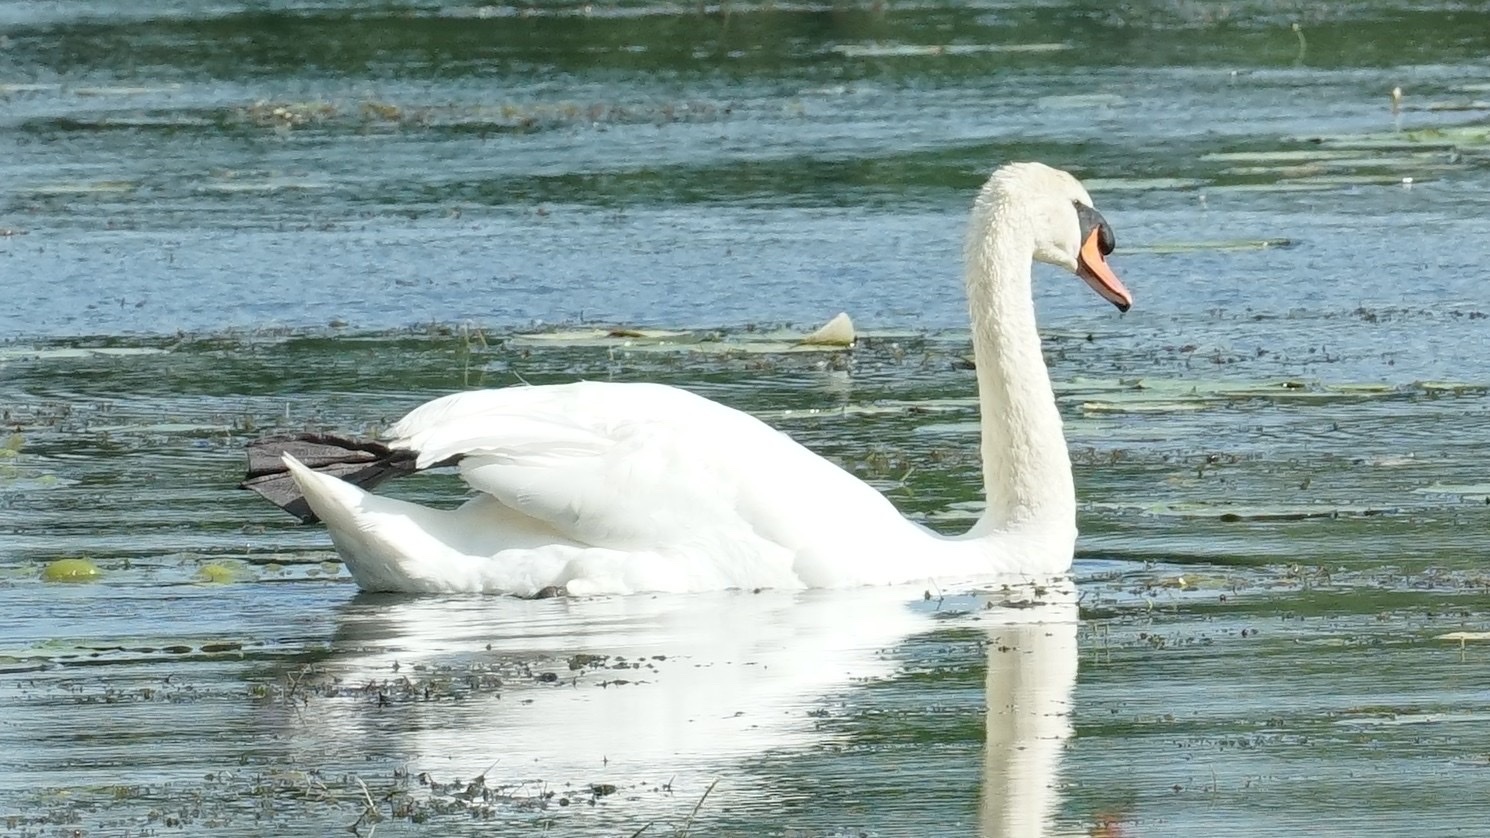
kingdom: Animalia
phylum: Chordata
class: Aves
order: Anseriformes
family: Anatidae
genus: Cygnus
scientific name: Cygnus olor
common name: Mute swan
